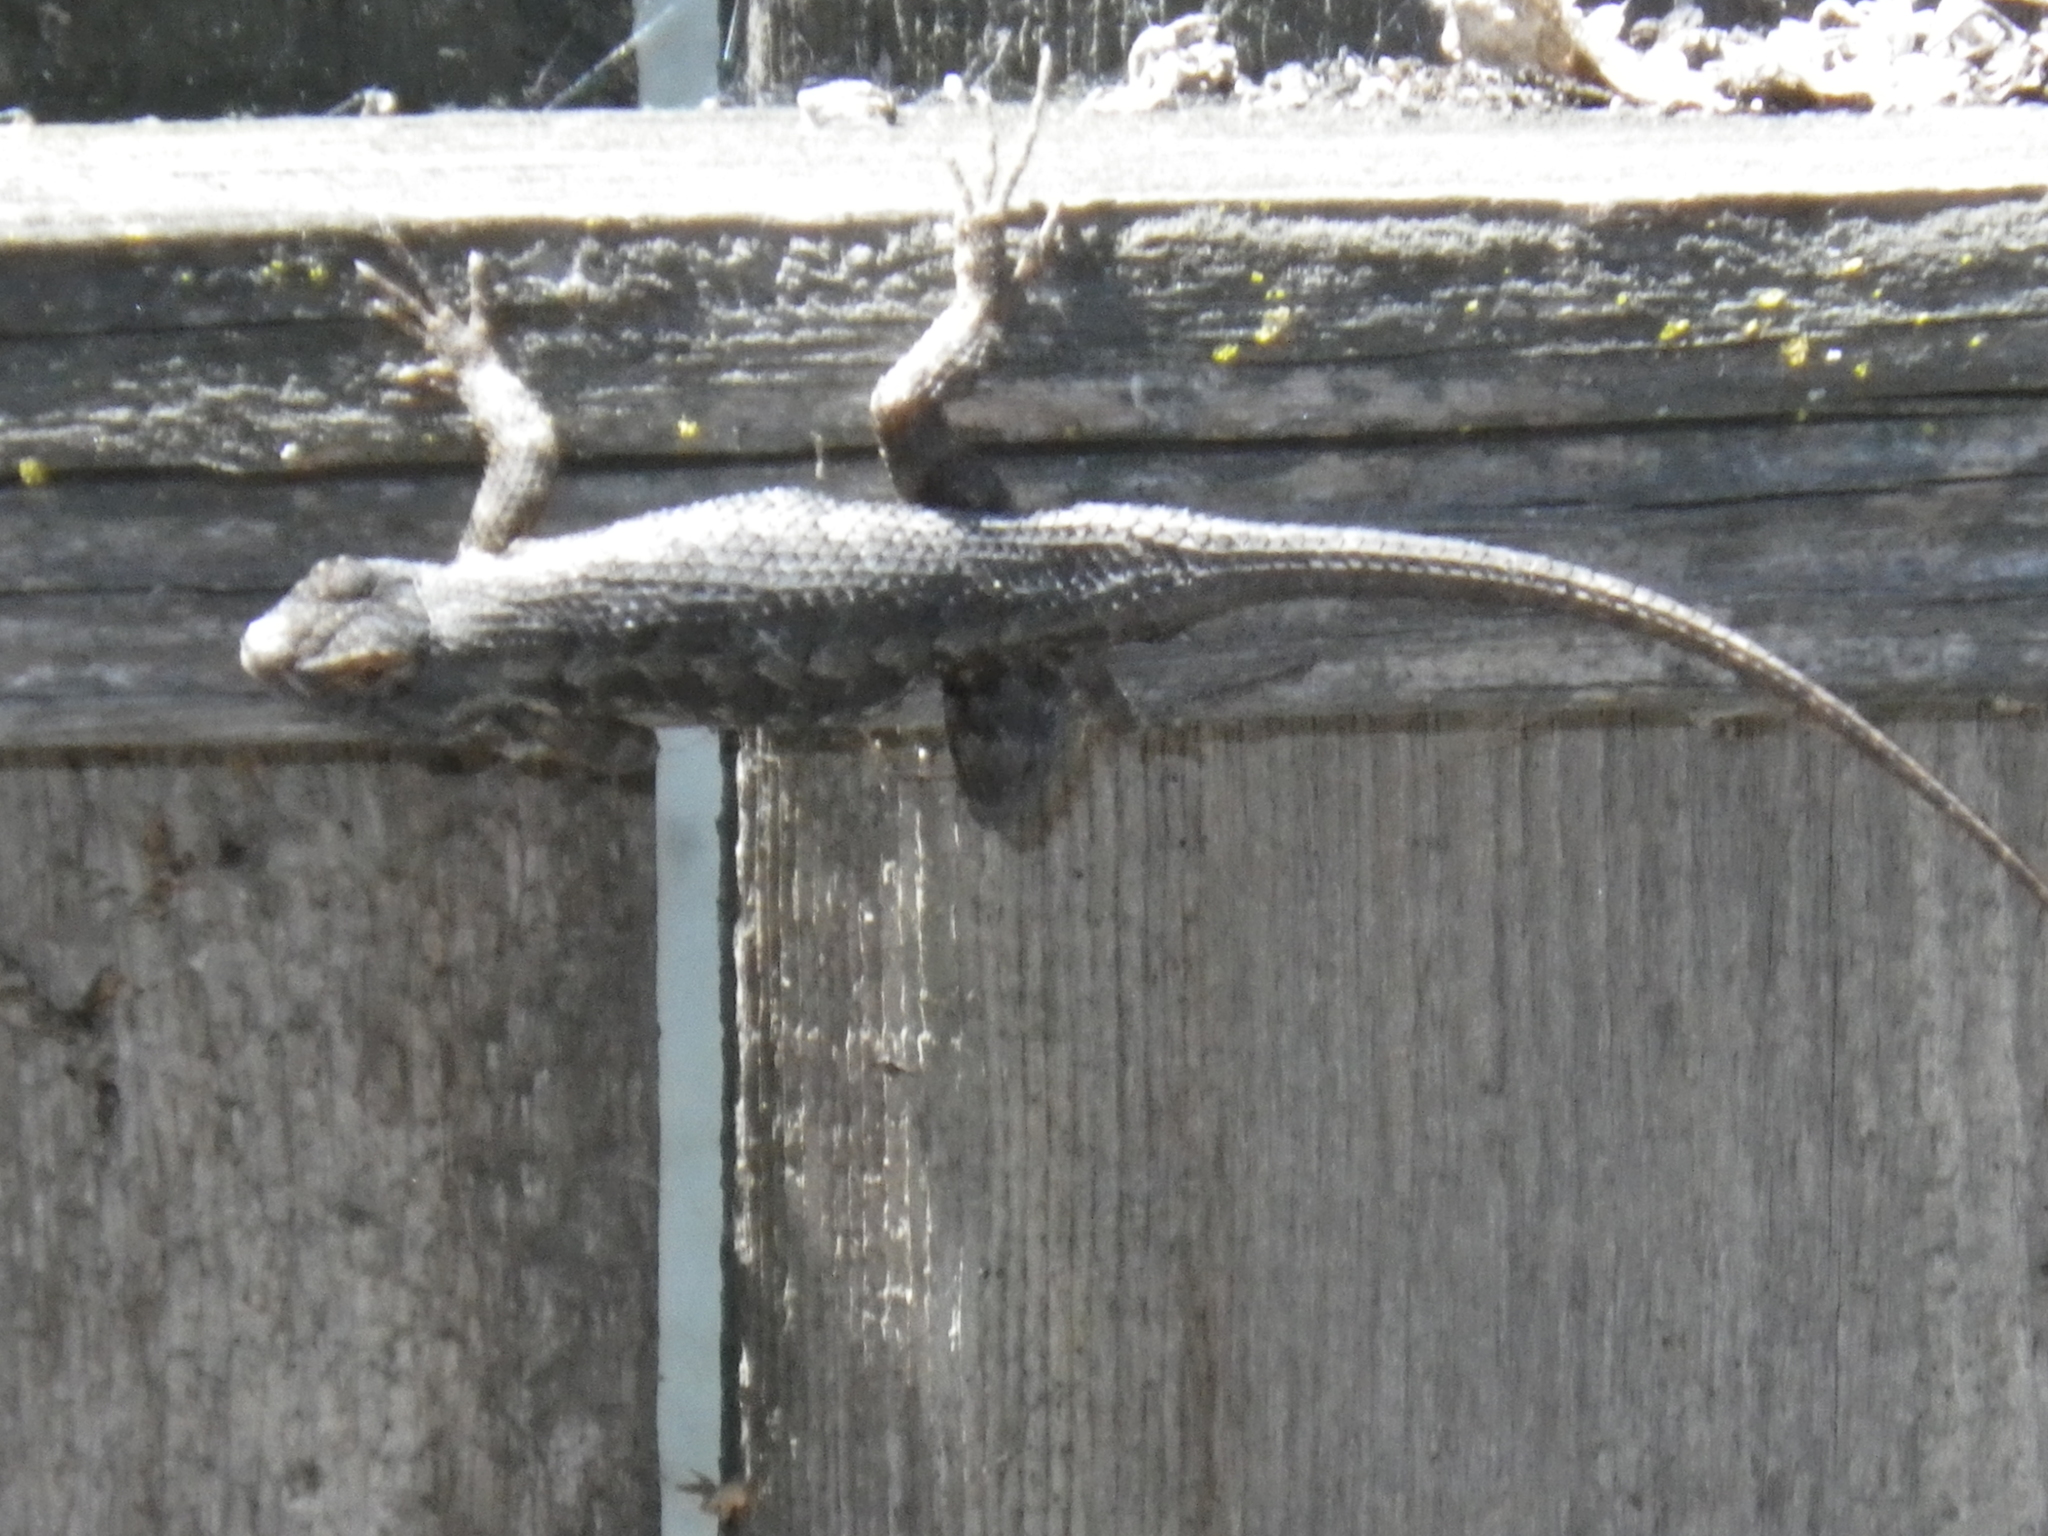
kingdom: Animalia
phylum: Chordata
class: Squamata
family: Phrynosomatidae
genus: Sceloporus
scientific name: Sceloporus occidentalis
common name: Western fence lizard
